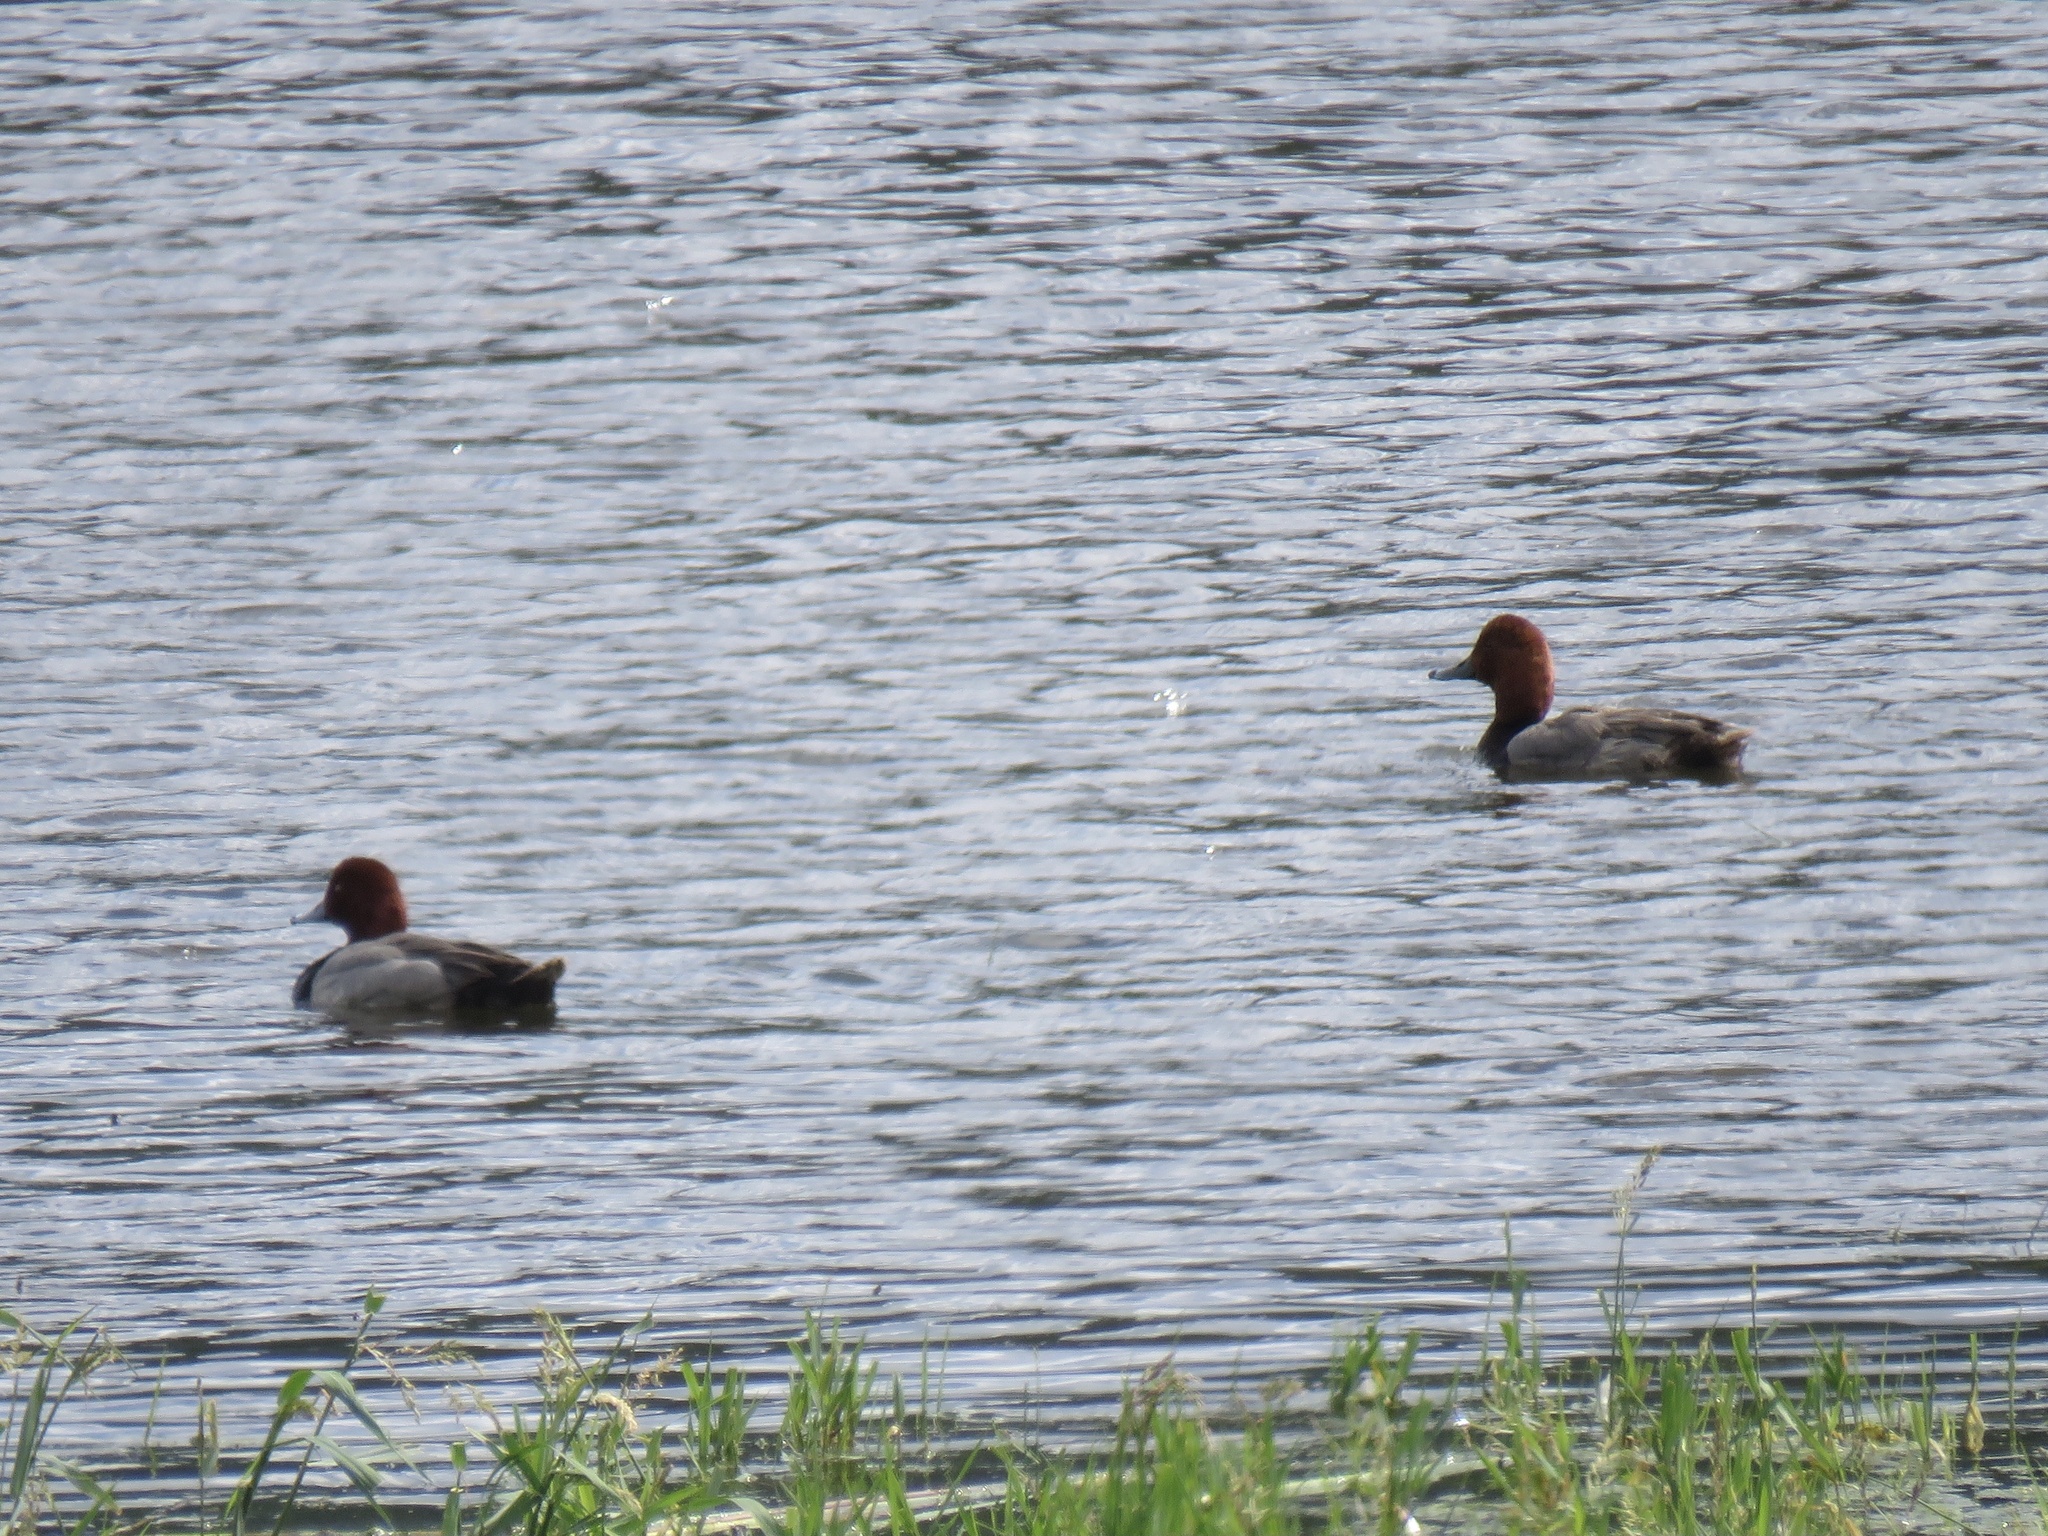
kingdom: Animalia
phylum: Chordata
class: Aves
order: Anseriformes
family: Anatidae
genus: Aythya
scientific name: Aythya americana
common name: Redhead
